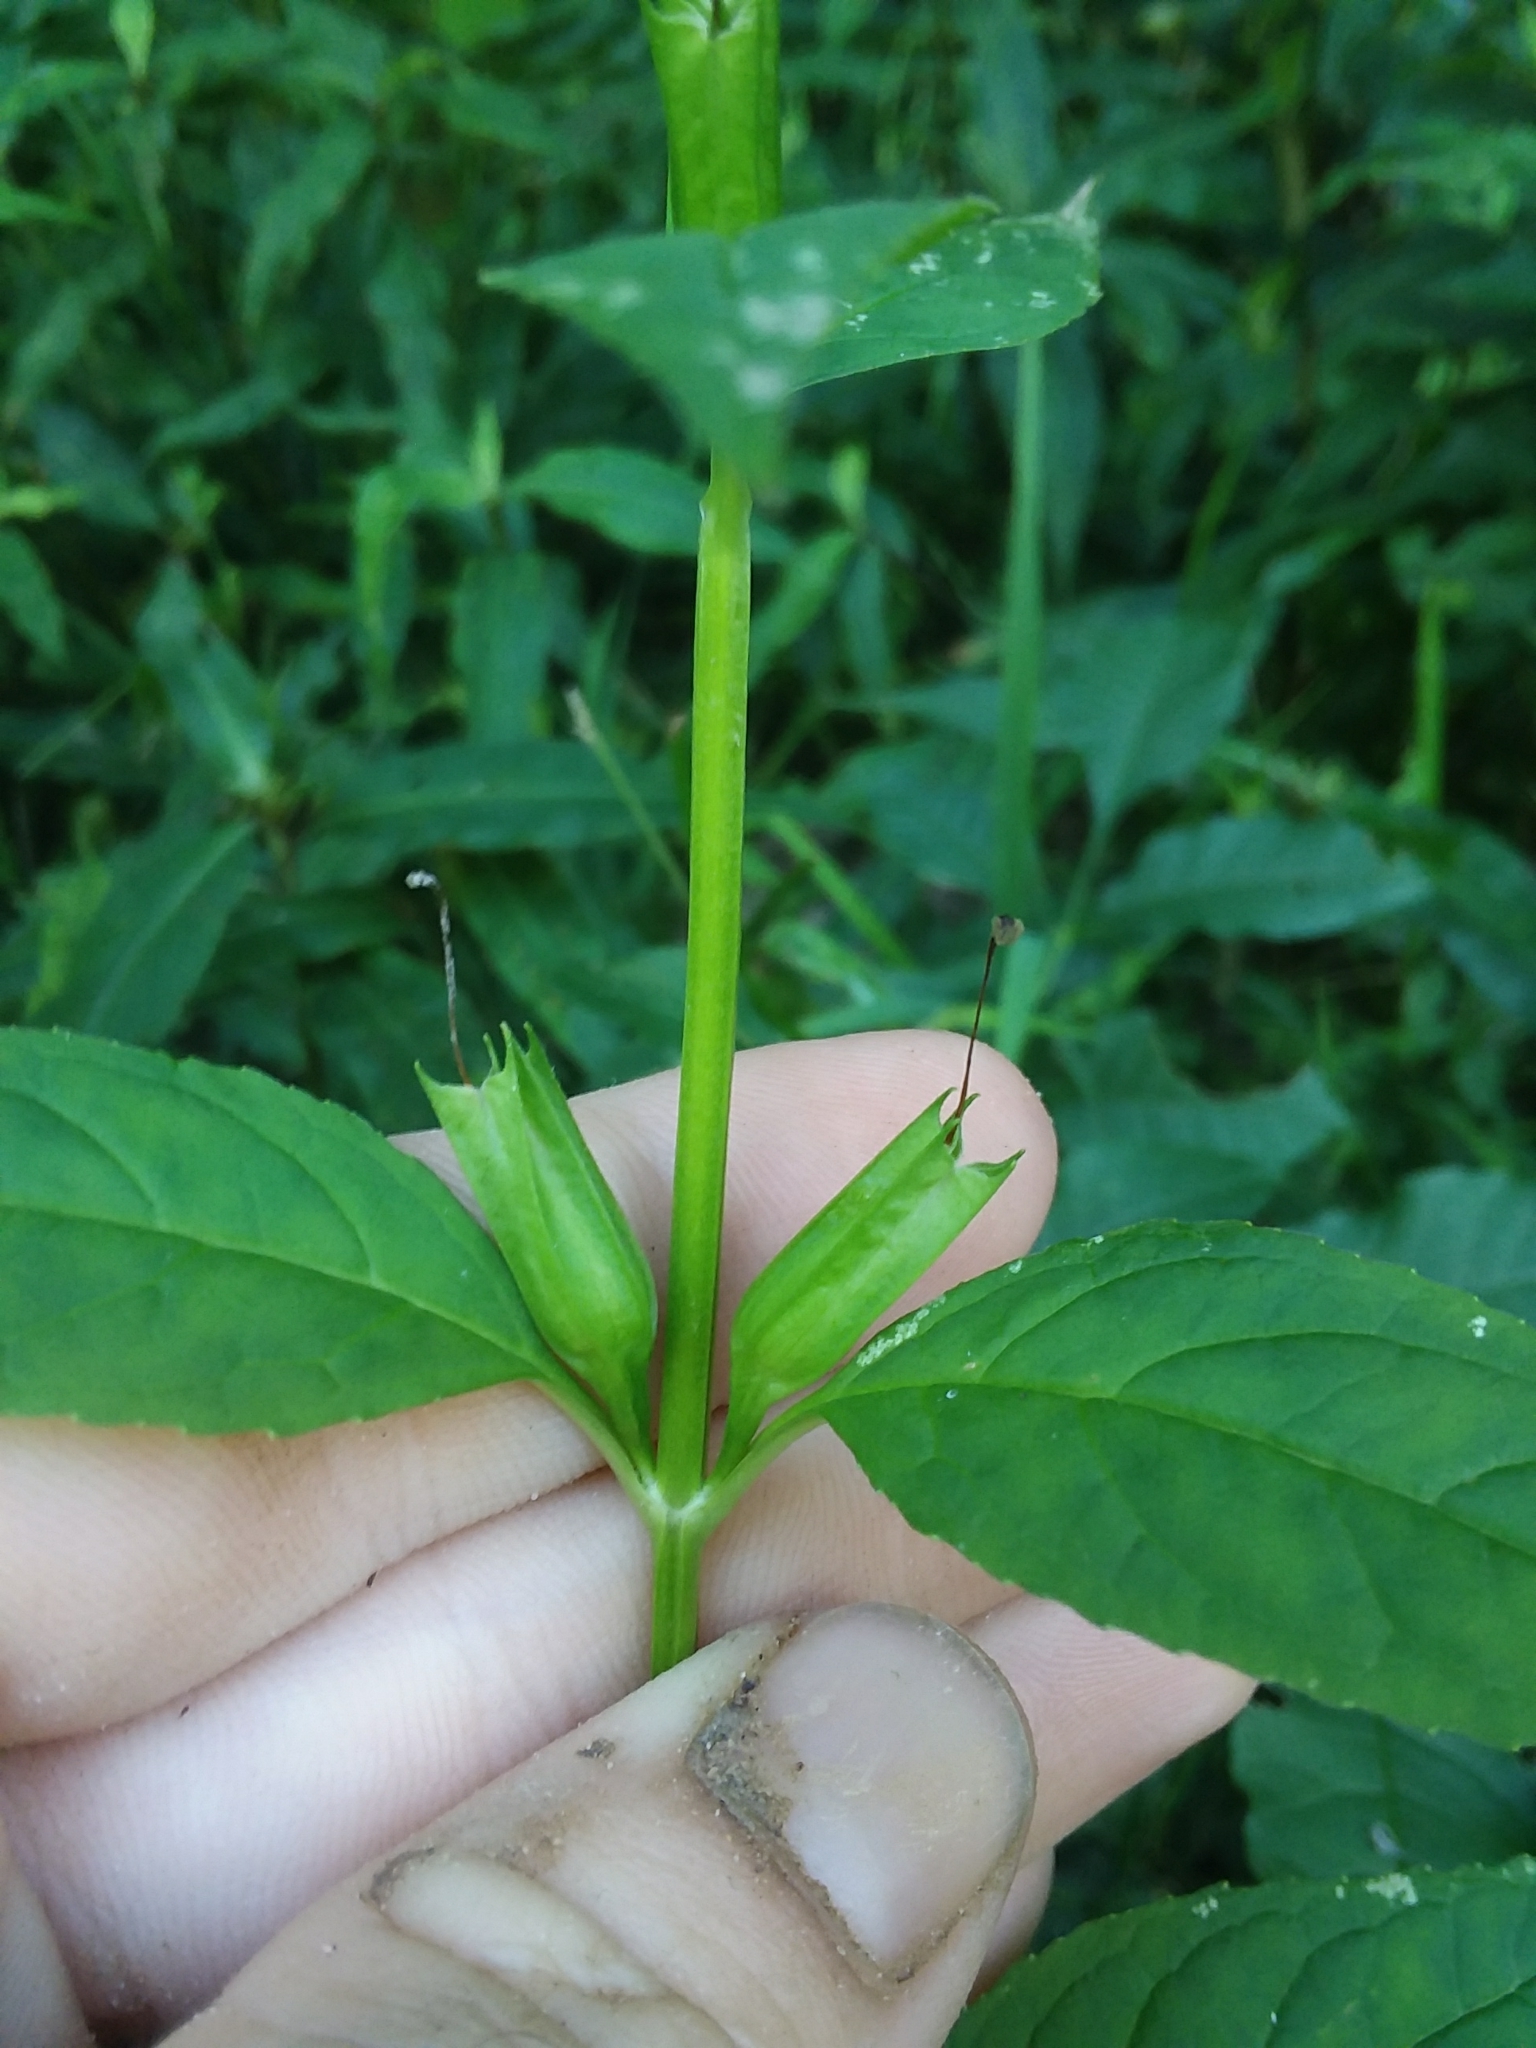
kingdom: Plantae
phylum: Tracheophyta
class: Magnoliopsida
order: Lamiales
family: Phrymaceae
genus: Mimulus
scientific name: Mimulus alatus
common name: Sharp-wing monkey-flower
